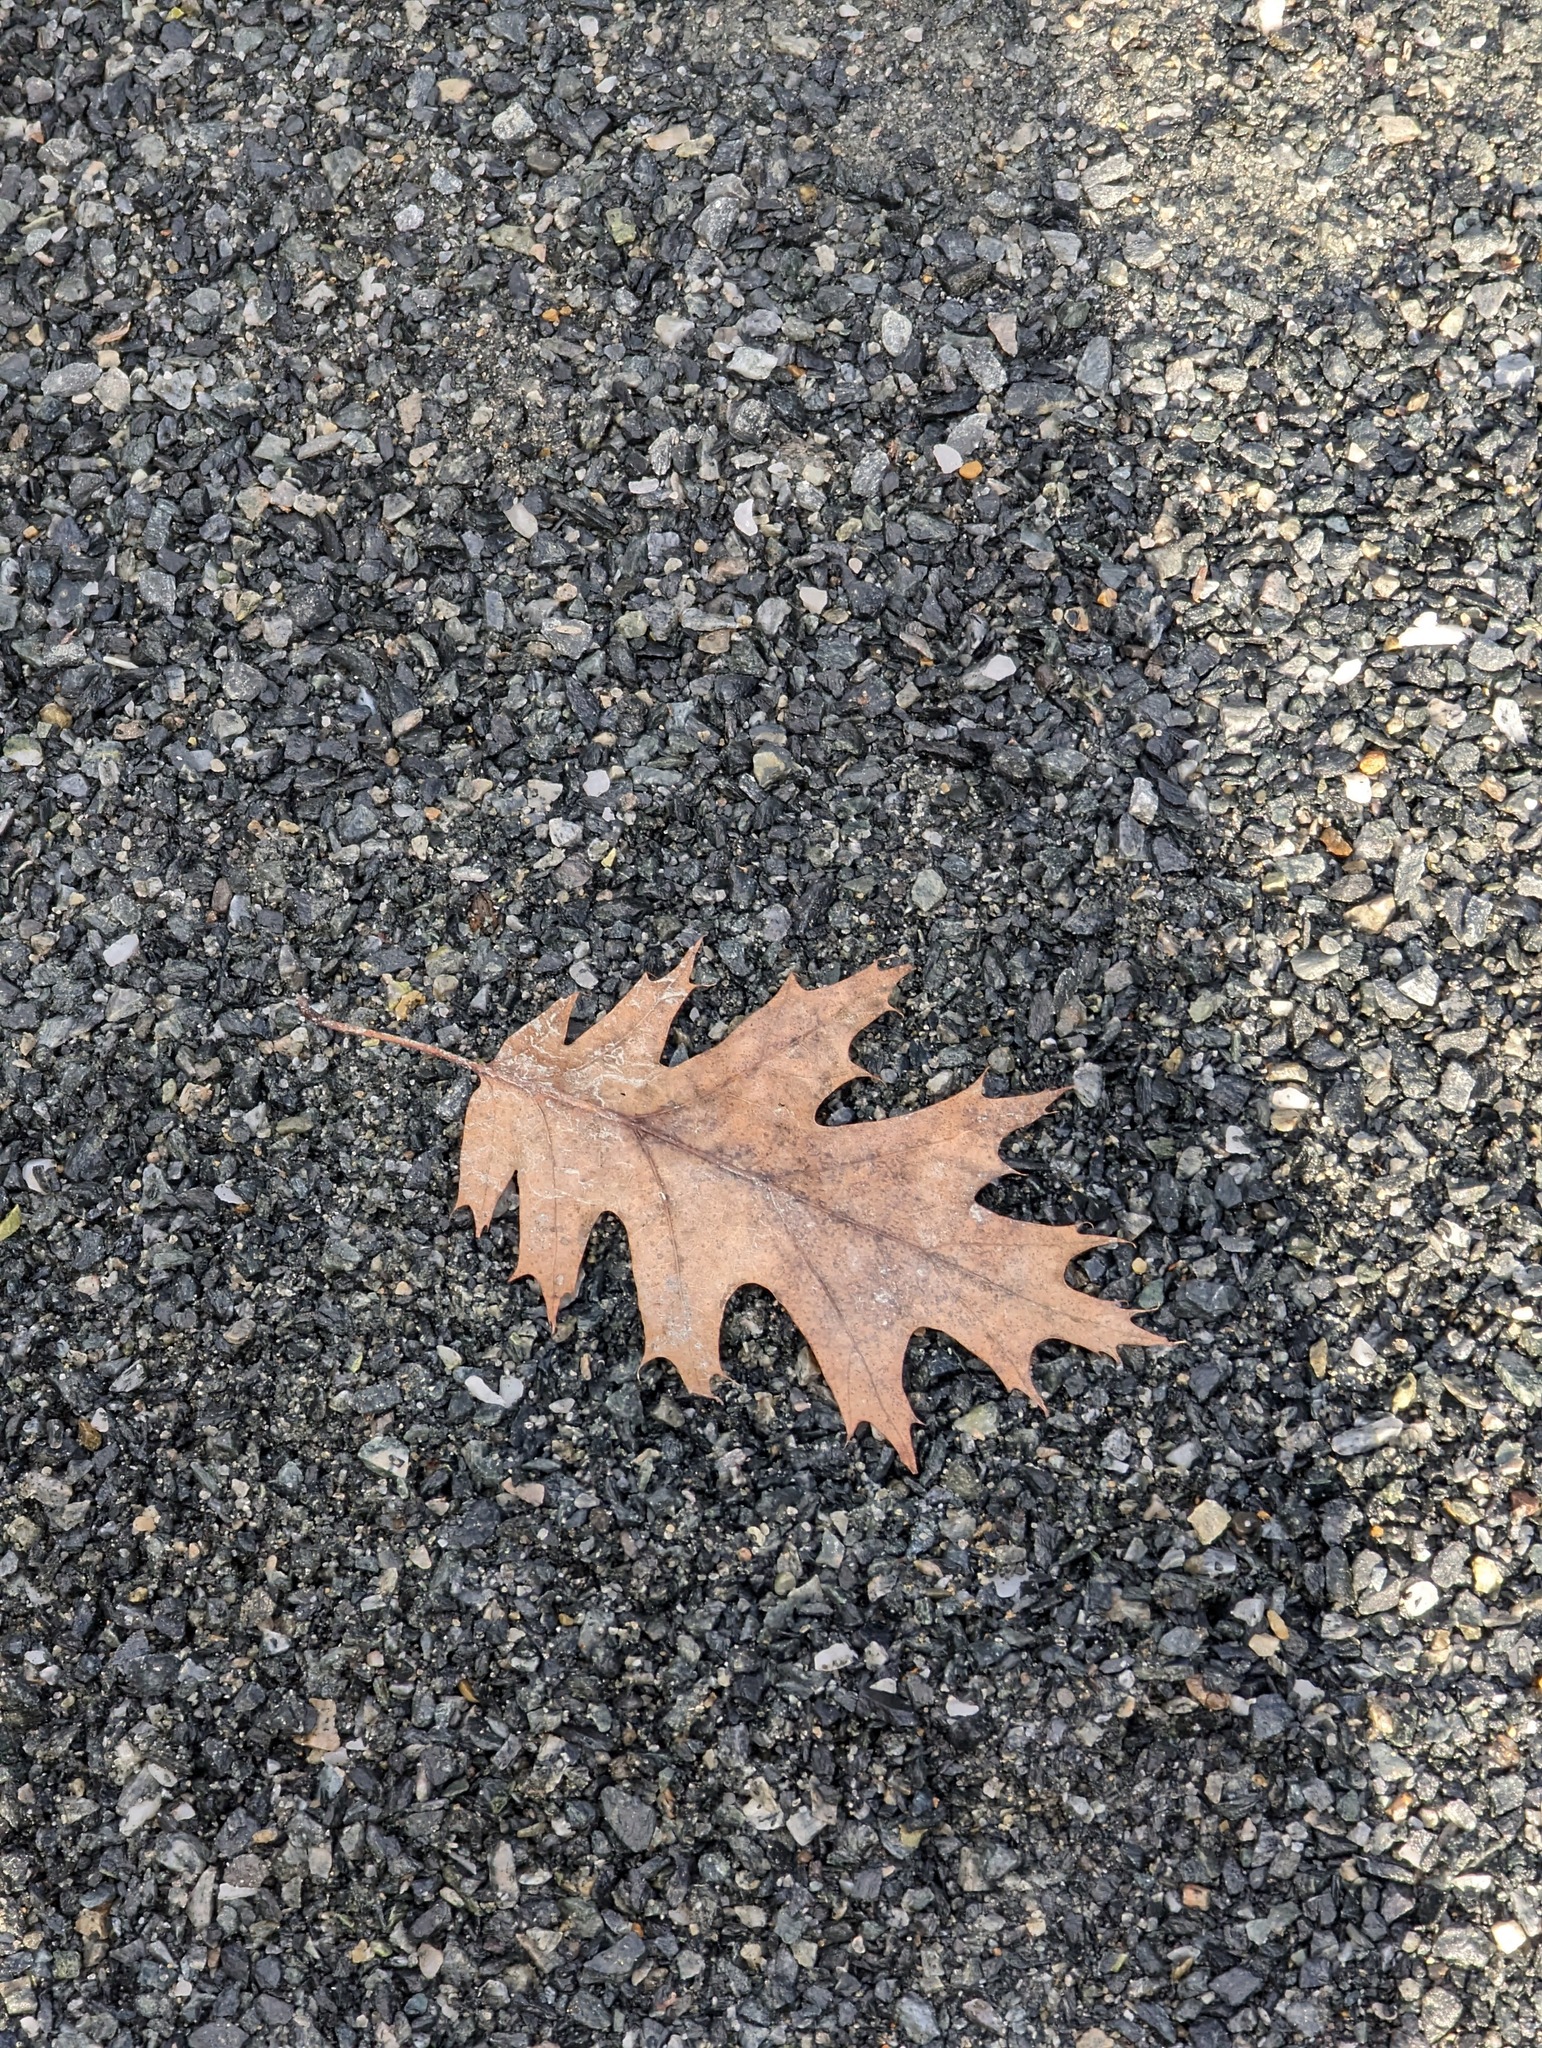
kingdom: Plantae
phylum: Tracheophyta
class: Magnoliopsida
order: Fagales
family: Fagaceae
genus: Quercus
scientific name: Quercus rubra
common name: Red oak
